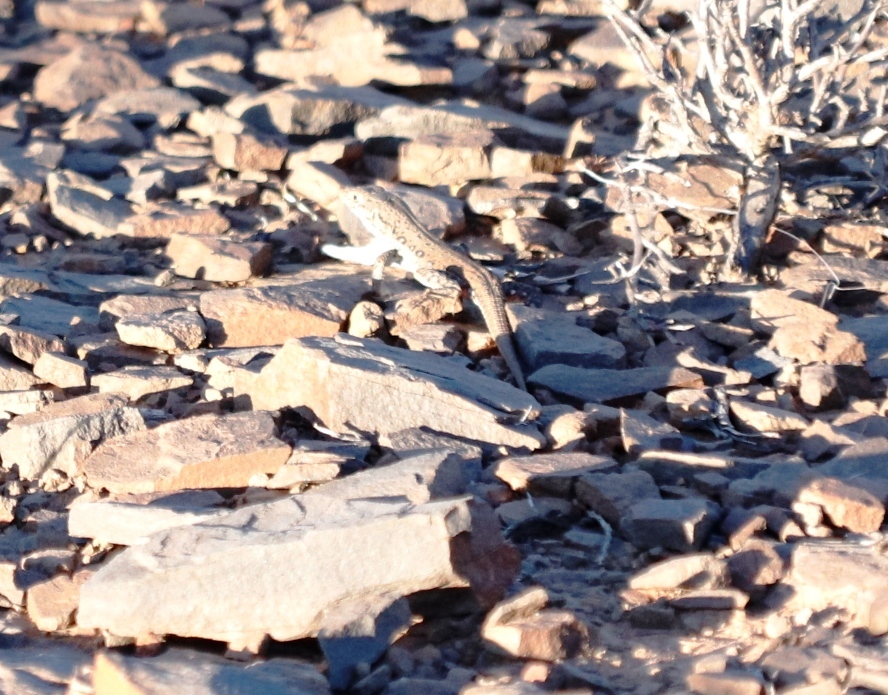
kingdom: Animalia
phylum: Chordata
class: Squamata
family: Lacertidae
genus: Pedioplanis
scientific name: Pedioplanis lineoocellata
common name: Spotted sand lizard
